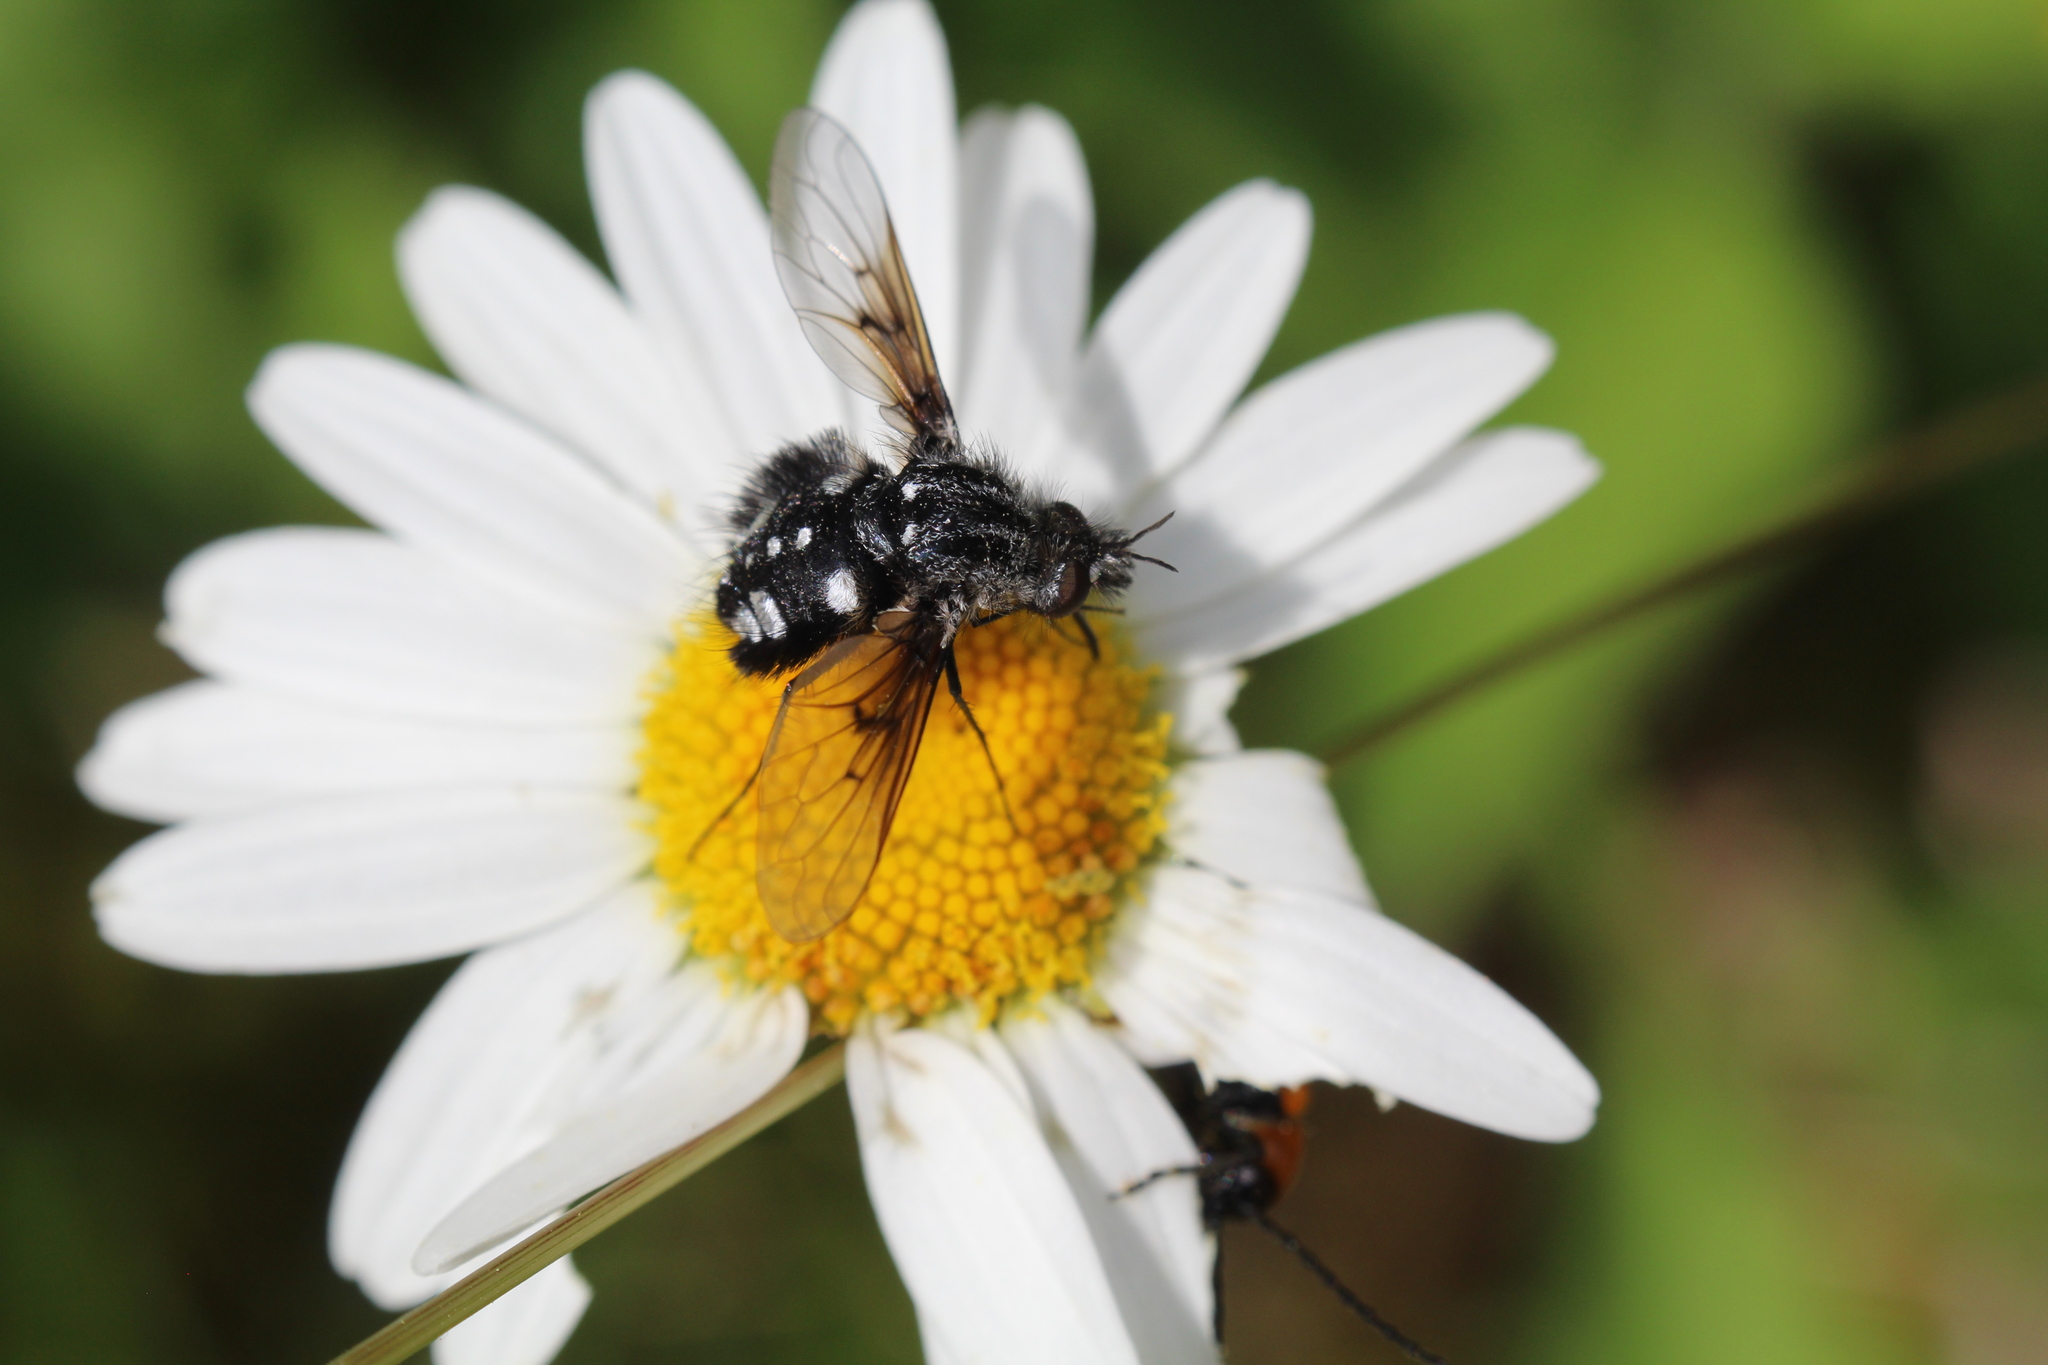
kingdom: Animalia
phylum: Arthropoda
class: Insecta
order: Diptera
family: Bombyliidae
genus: Bombylella
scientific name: Bombylella atra
